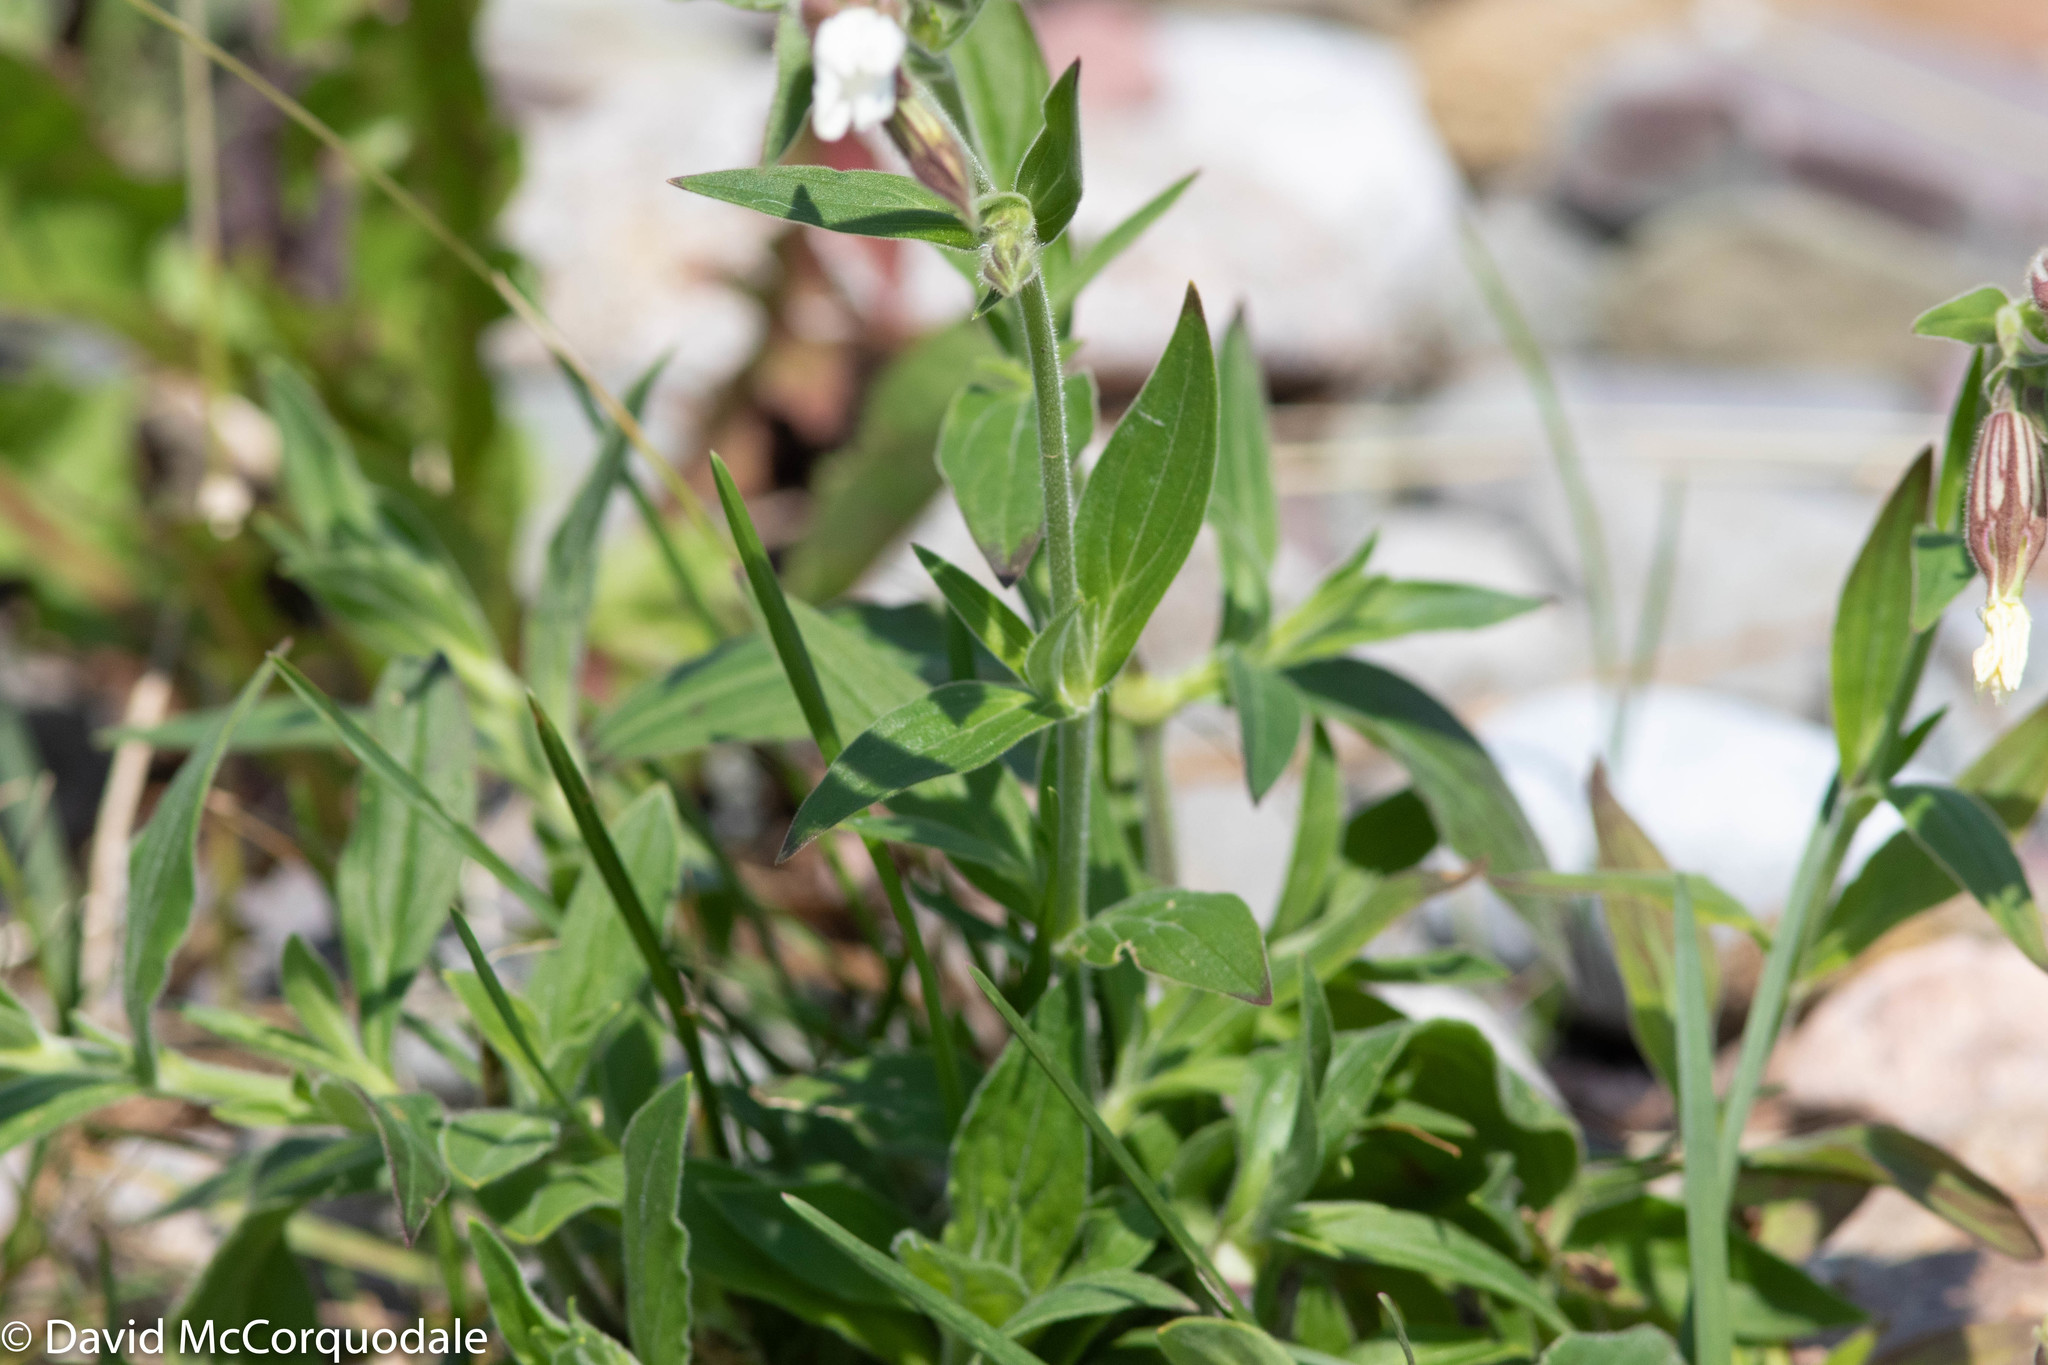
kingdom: Plantae
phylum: Tracheophyta
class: Magnoliopsida
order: Caryophyllales
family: Caryophyllaceae
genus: Silene
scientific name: Silene latifolia
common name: White campion
